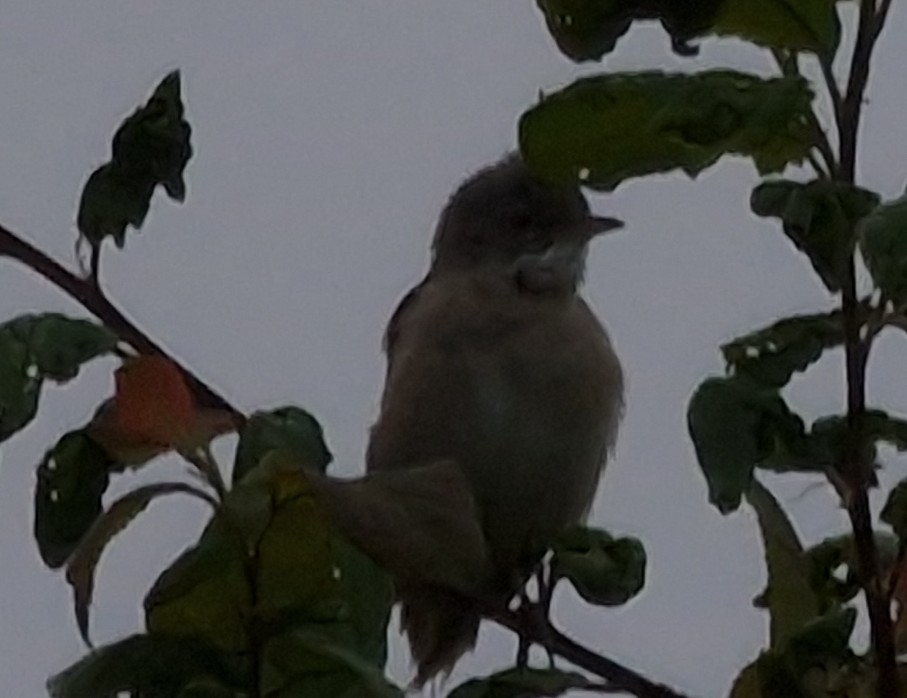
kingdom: Animalia
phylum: Chordata
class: Aves
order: Passeriformes
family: Sylviidae
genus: Sylvia
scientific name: Sylvia communis
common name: Common whitethroat
